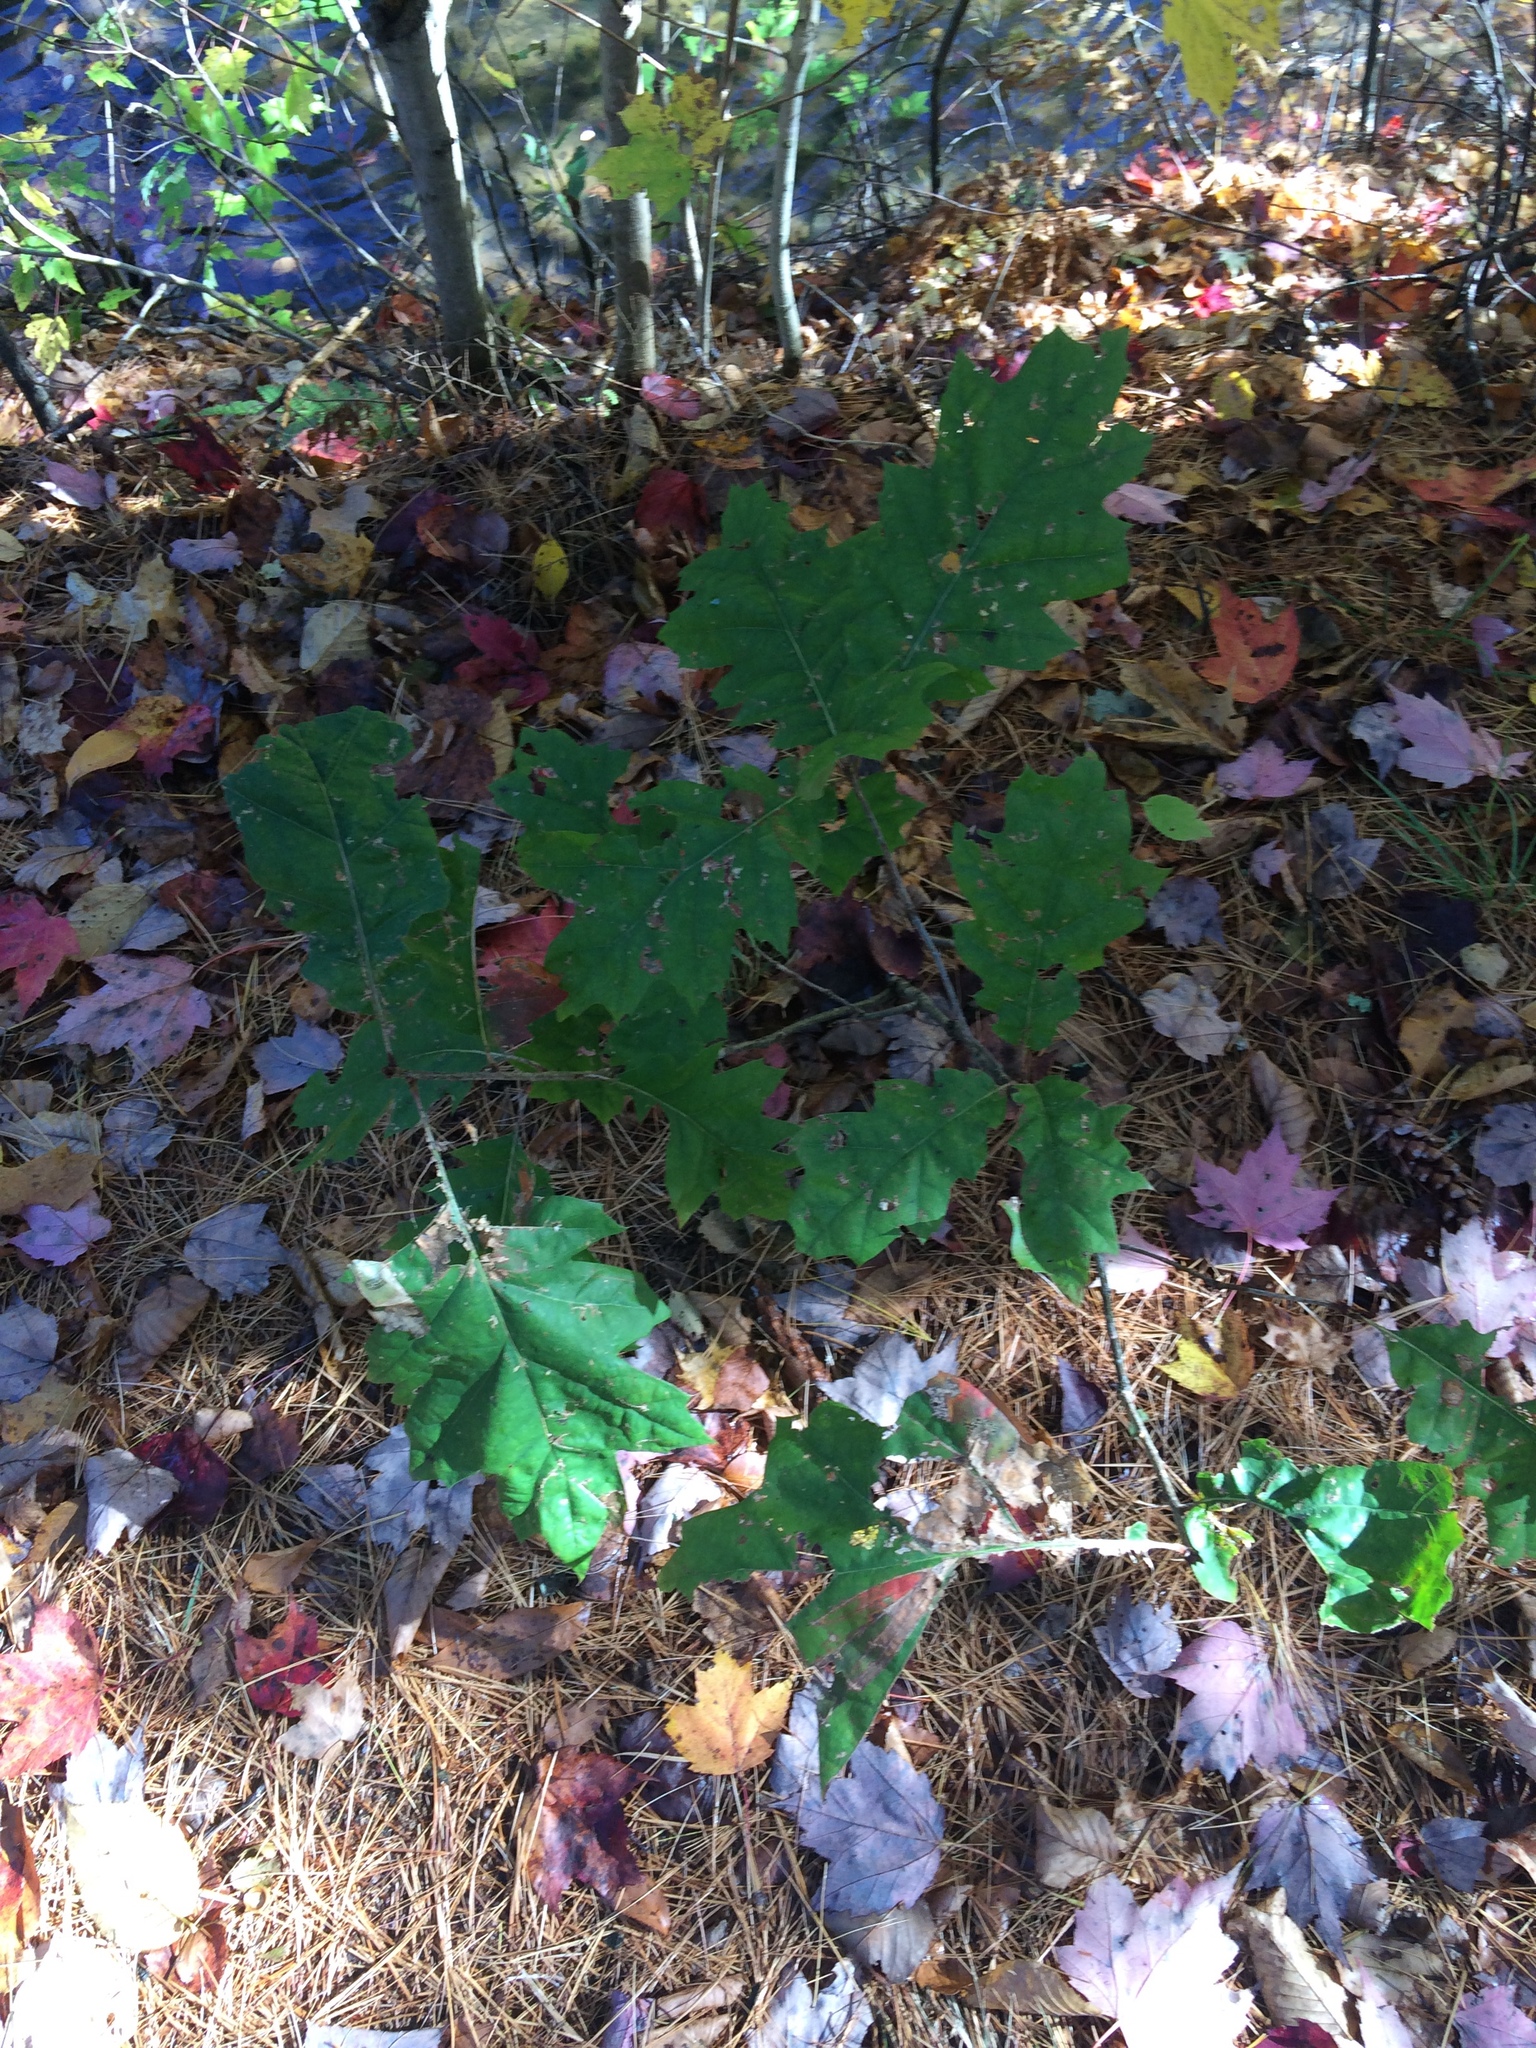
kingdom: Plantae
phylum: Tracheophyta
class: Magnoliopsida
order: Fagales
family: Fagaceae
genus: Quercus
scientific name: Quercus rubra
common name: Red oak
